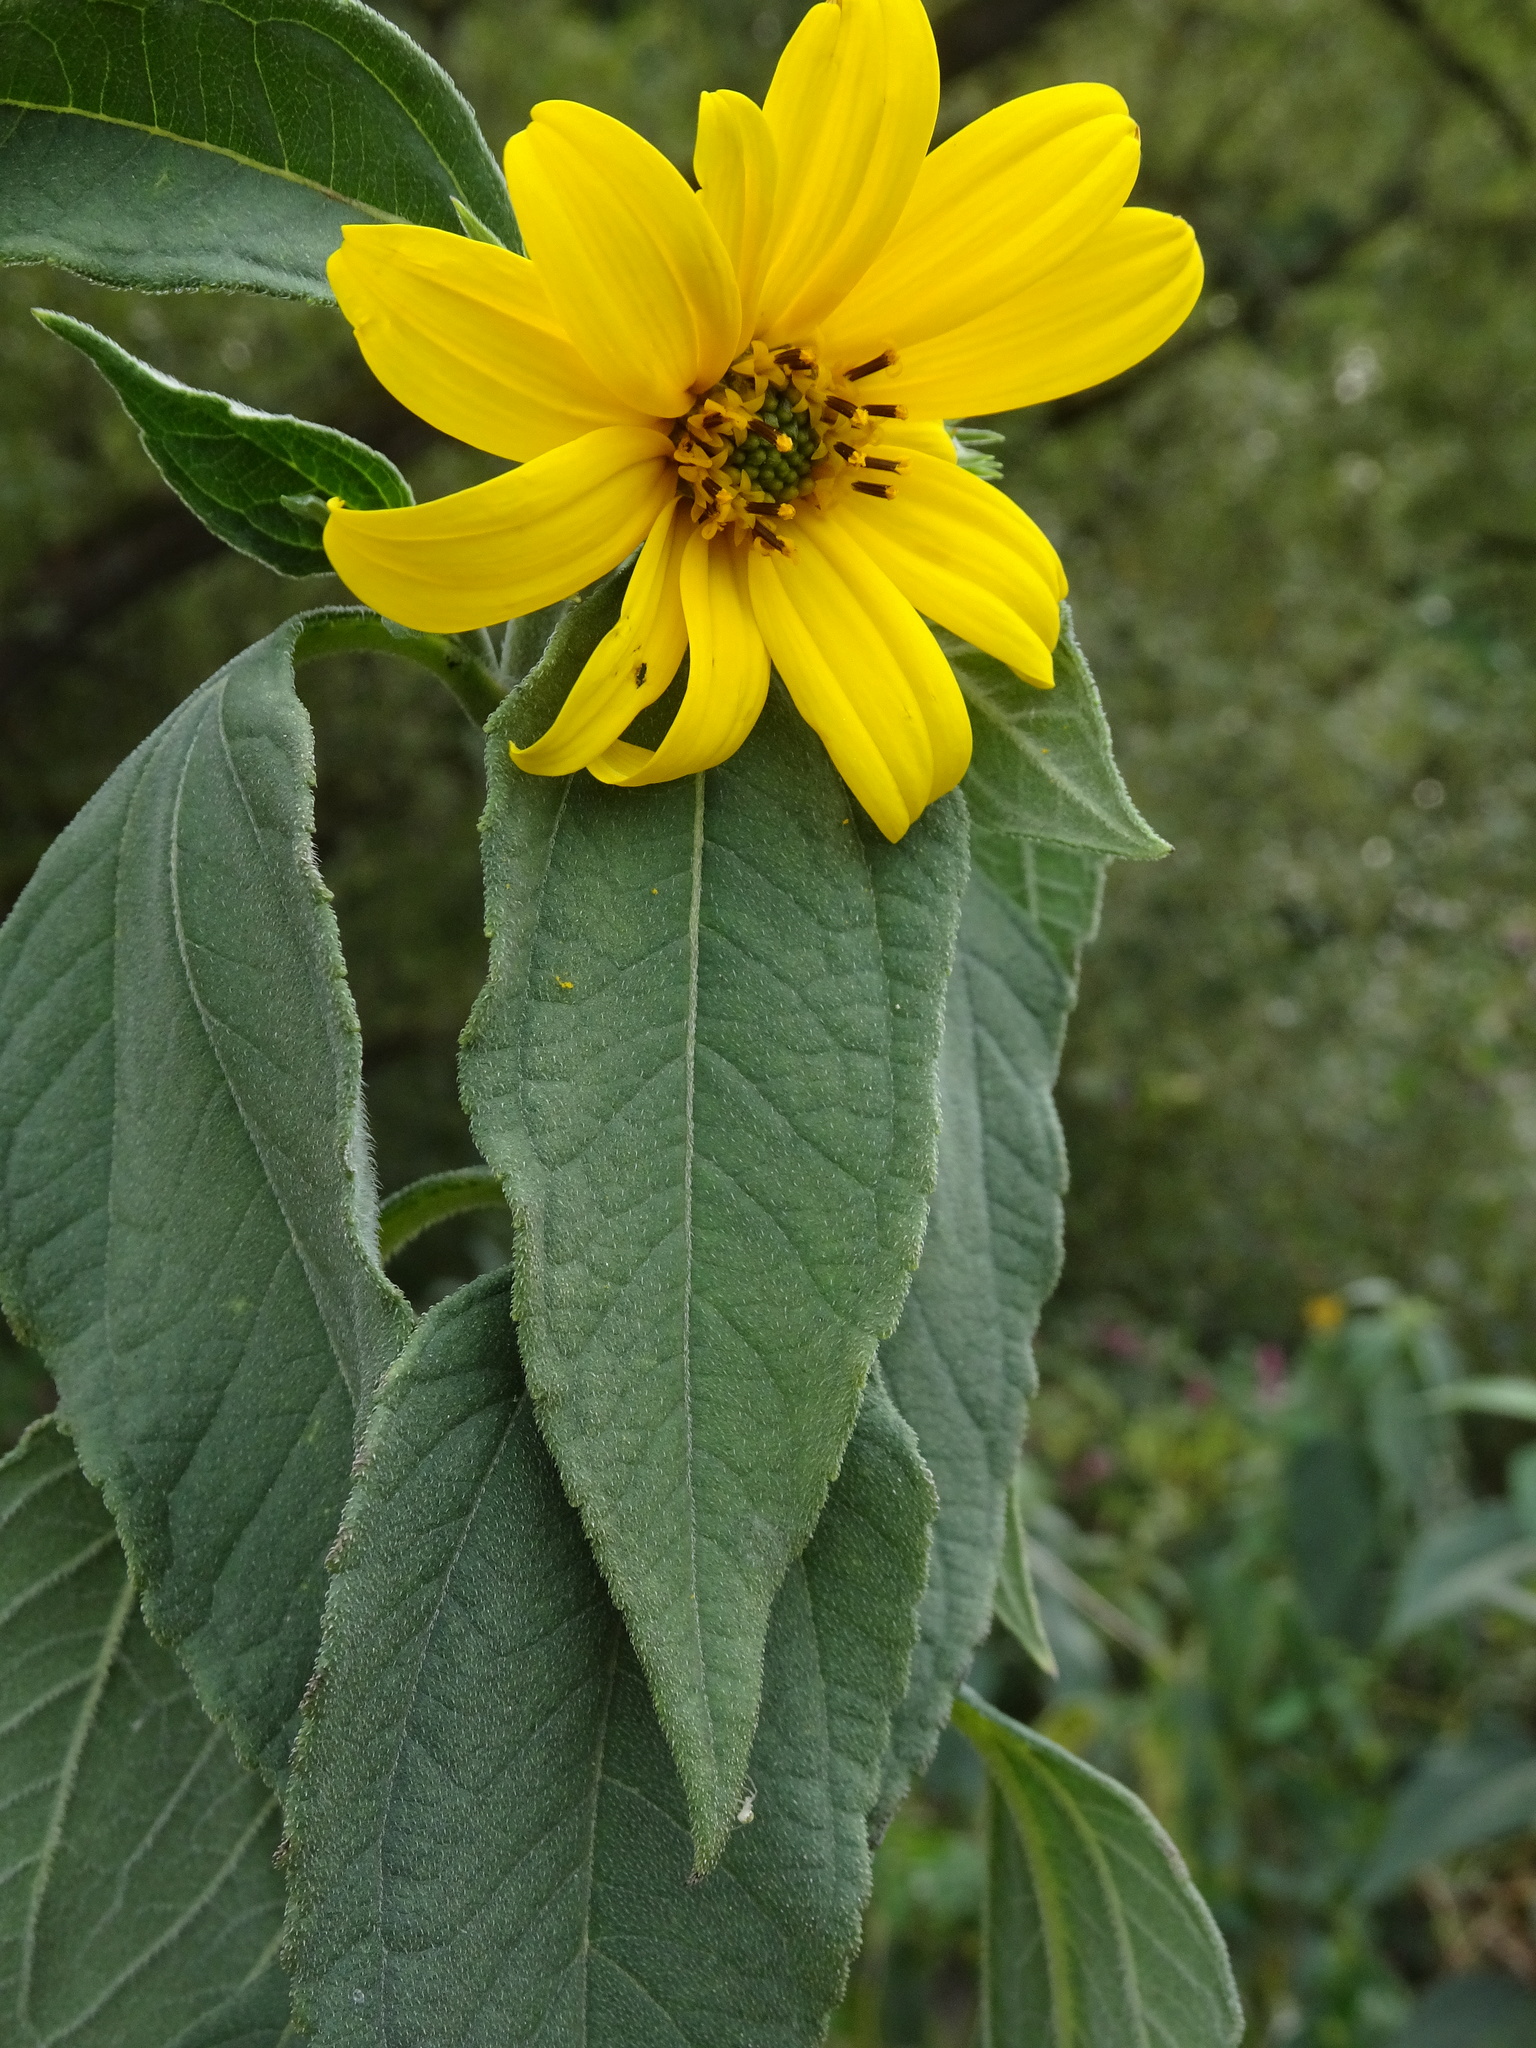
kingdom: Plantae
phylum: Tracheophyta
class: Magnoliopsida
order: Asterales
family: Asteraceae
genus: Helianthus
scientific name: Helianthus tuberosus
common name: Jerusalem artichoke
